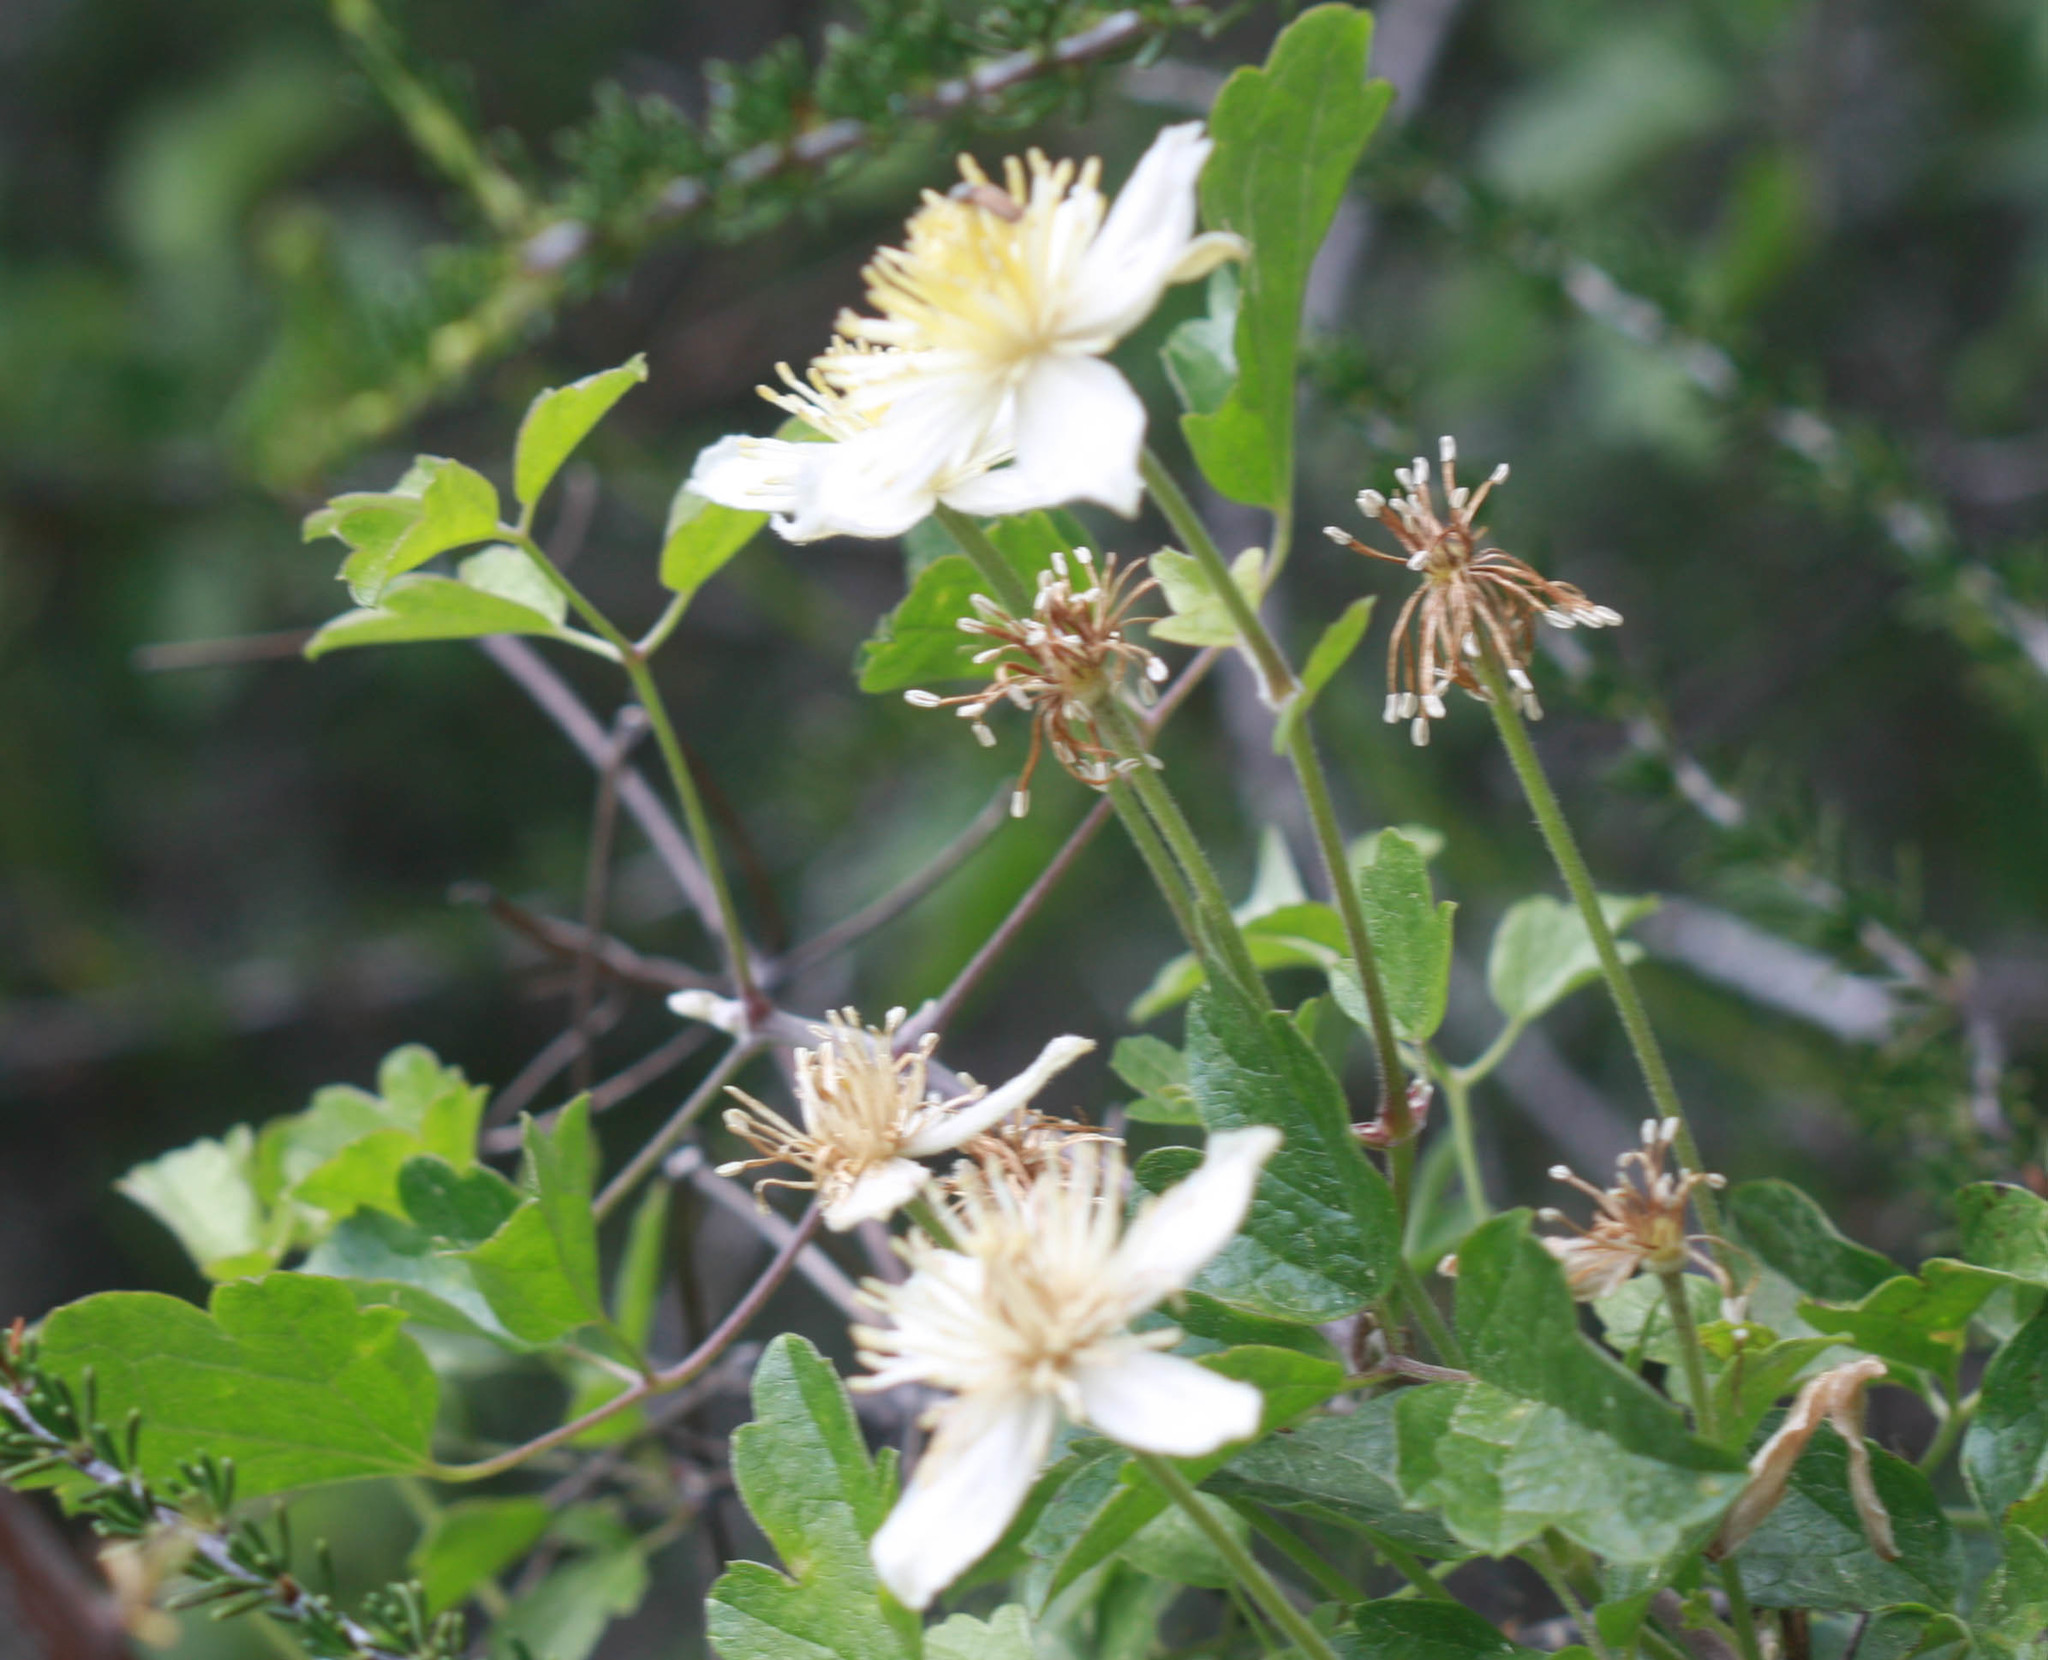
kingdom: Plantae
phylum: Tracheophyta
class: Magnoliopsida
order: Ranunculales
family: Ranunculaceae
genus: Clematis
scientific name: Clematis lasiantha
